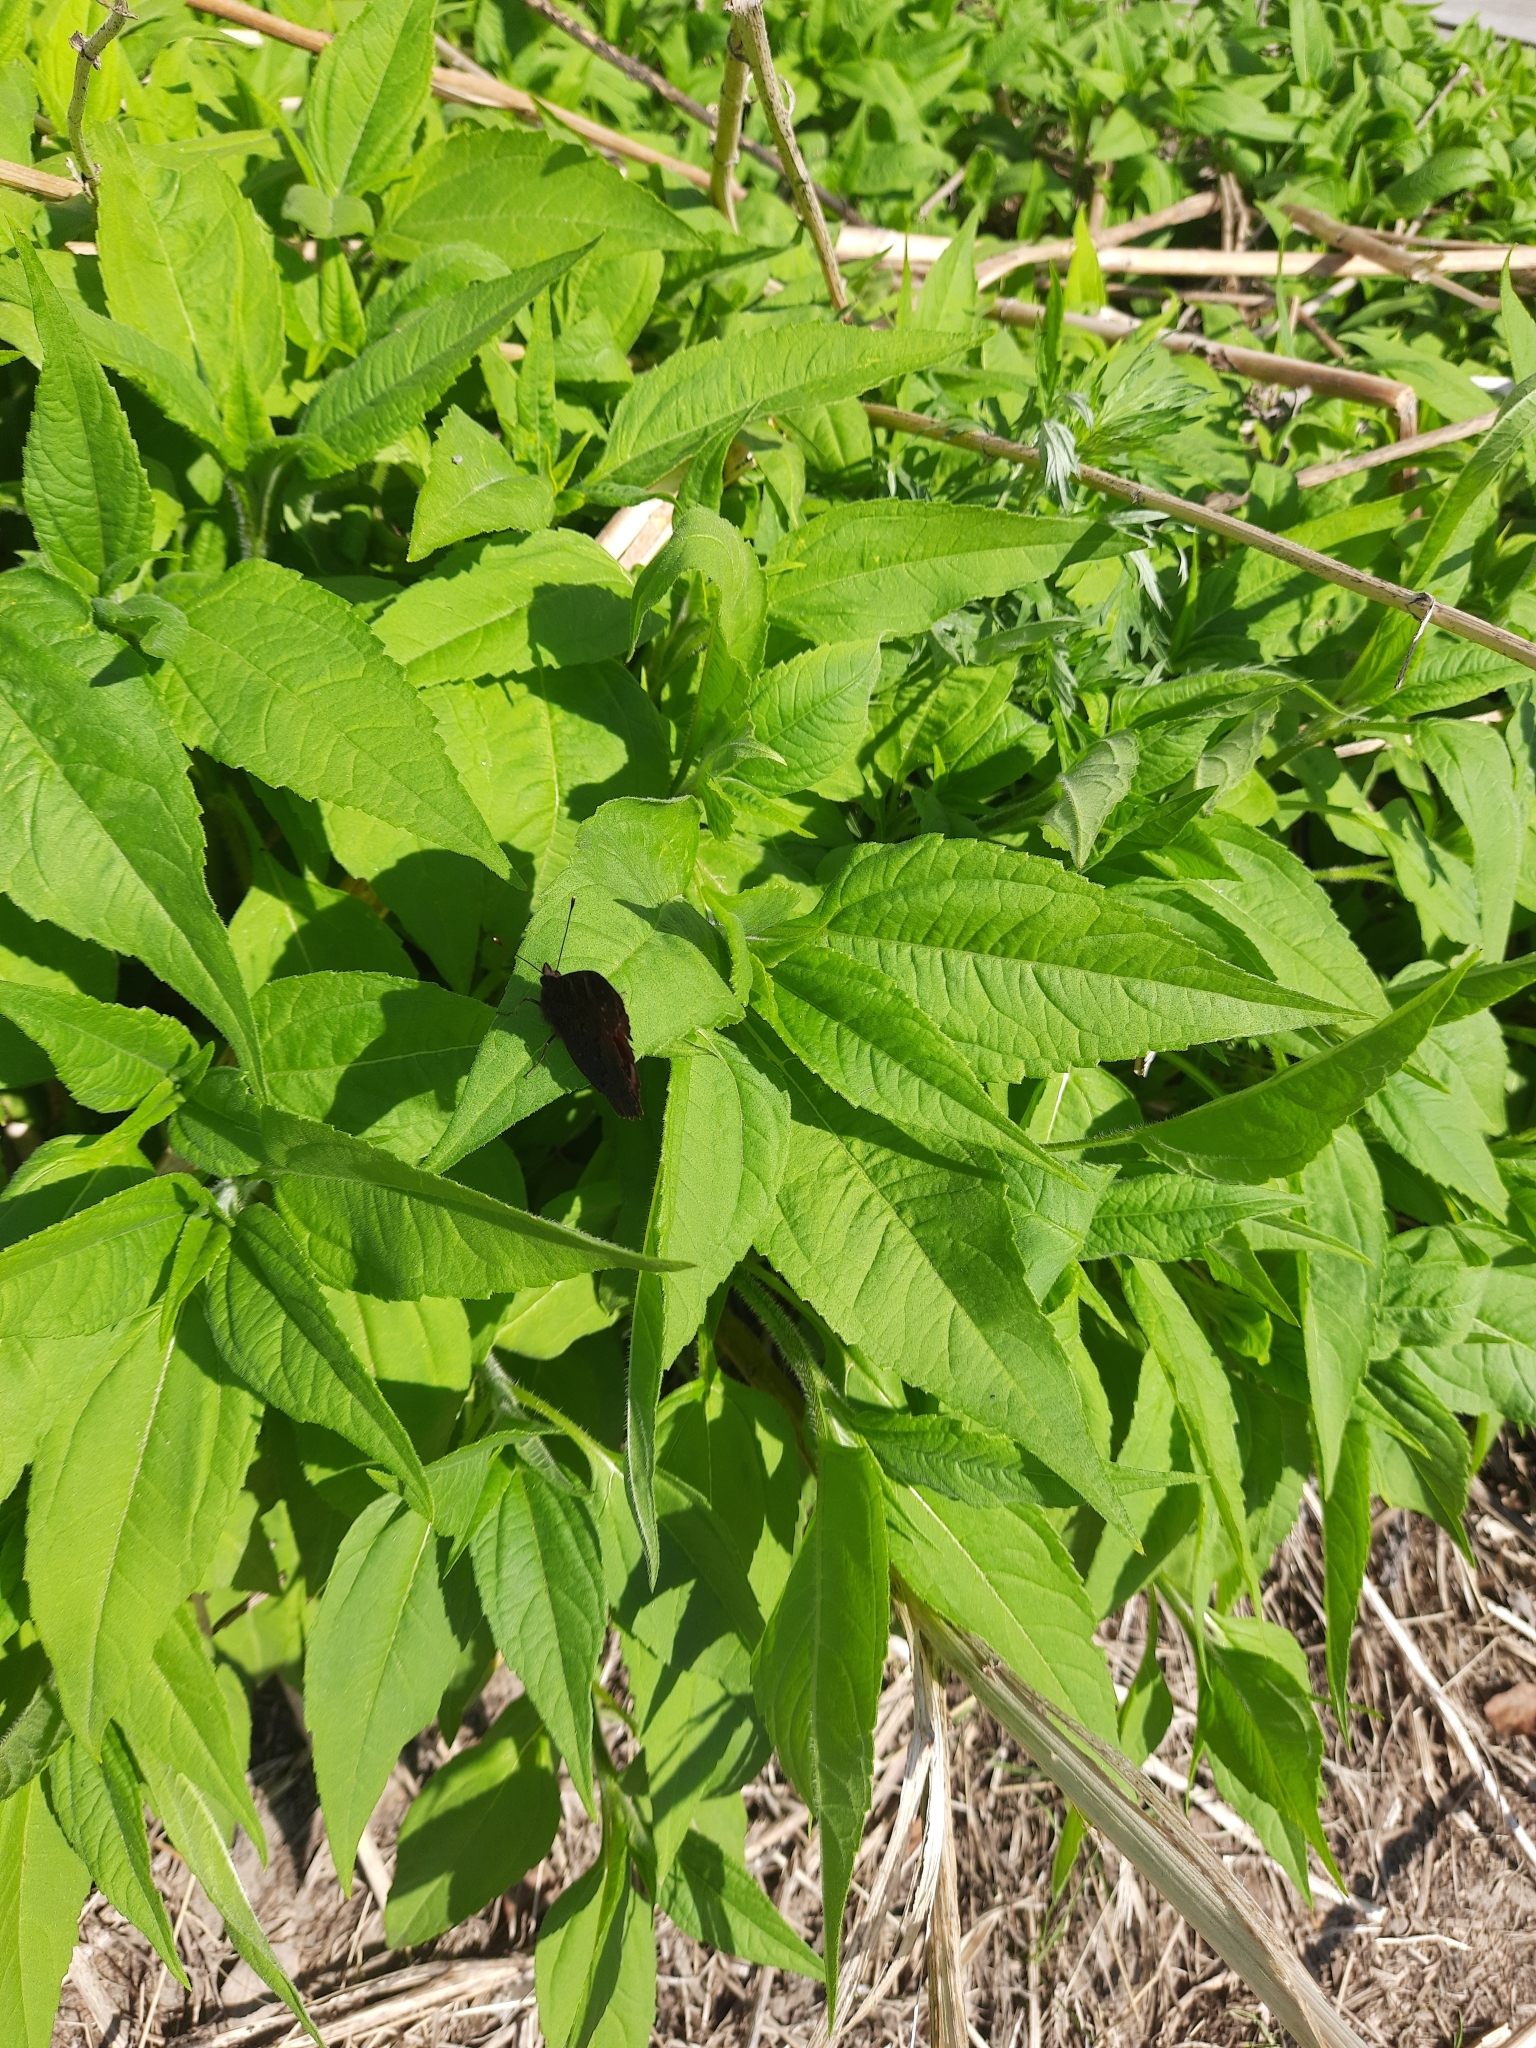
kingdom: Plantae
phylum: Tracheophyta
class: Magnoliopsida
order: Asterales
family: Asteraceae
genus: Helianthus
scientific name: Helianthus tuberosus
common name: Jerusalem artichoke
